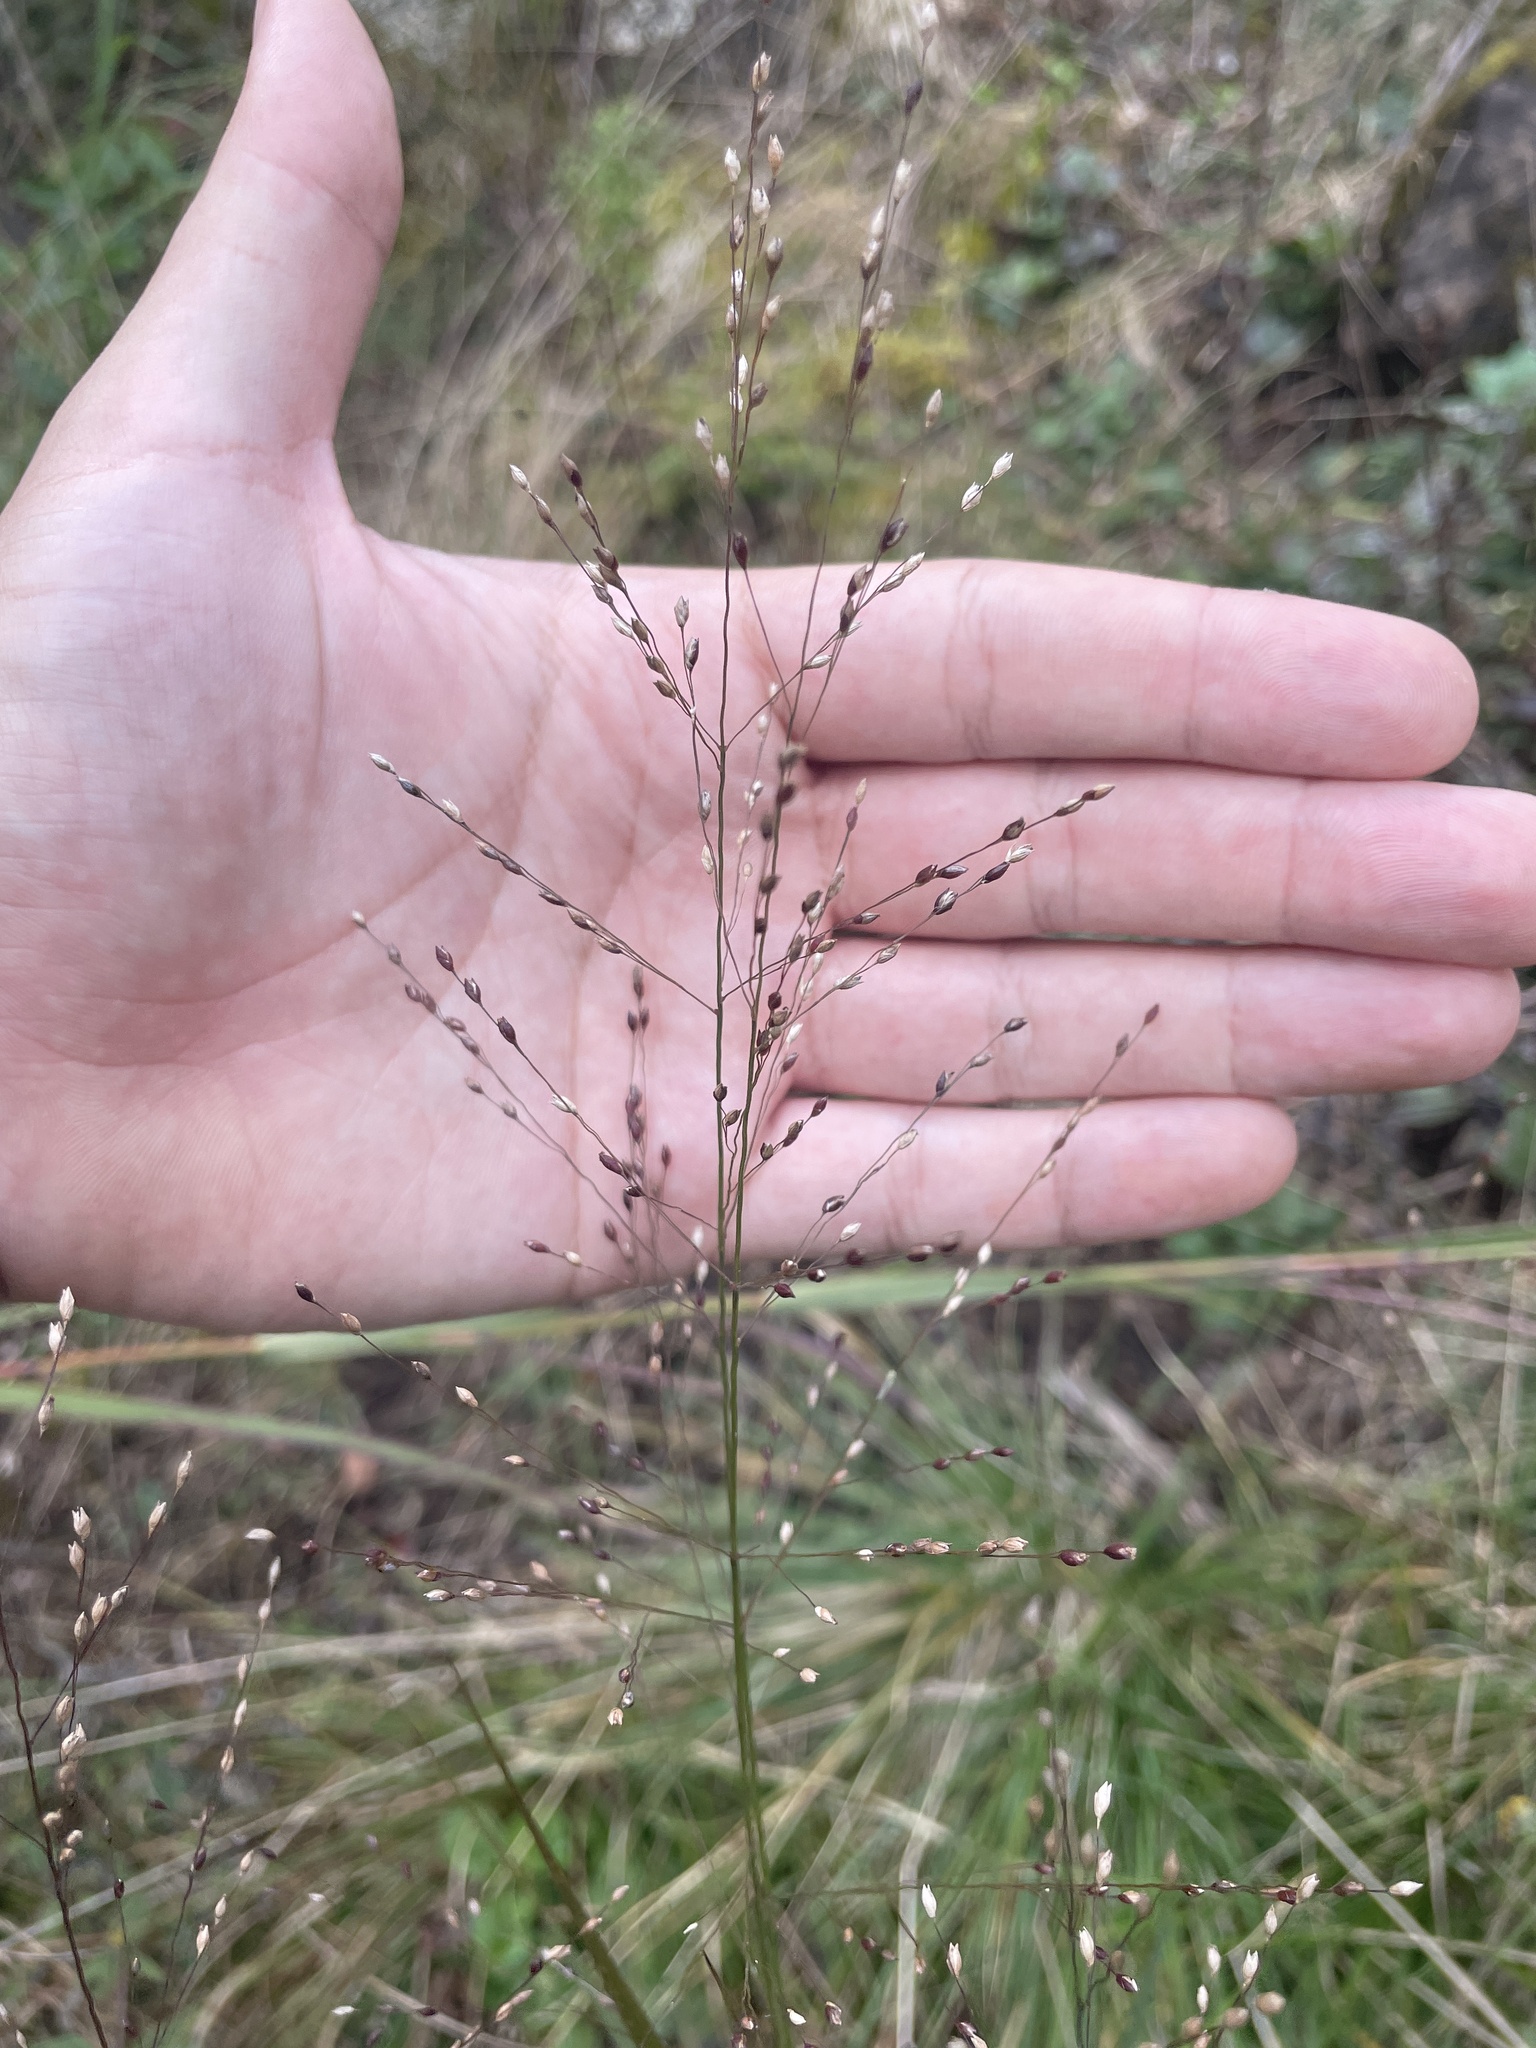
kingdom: Plantae
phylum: Tracheophyta
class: Liliopsida
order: Poales
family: Poaceae
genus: Panicum
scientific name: Panicum virgatum
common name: Switchgrass
